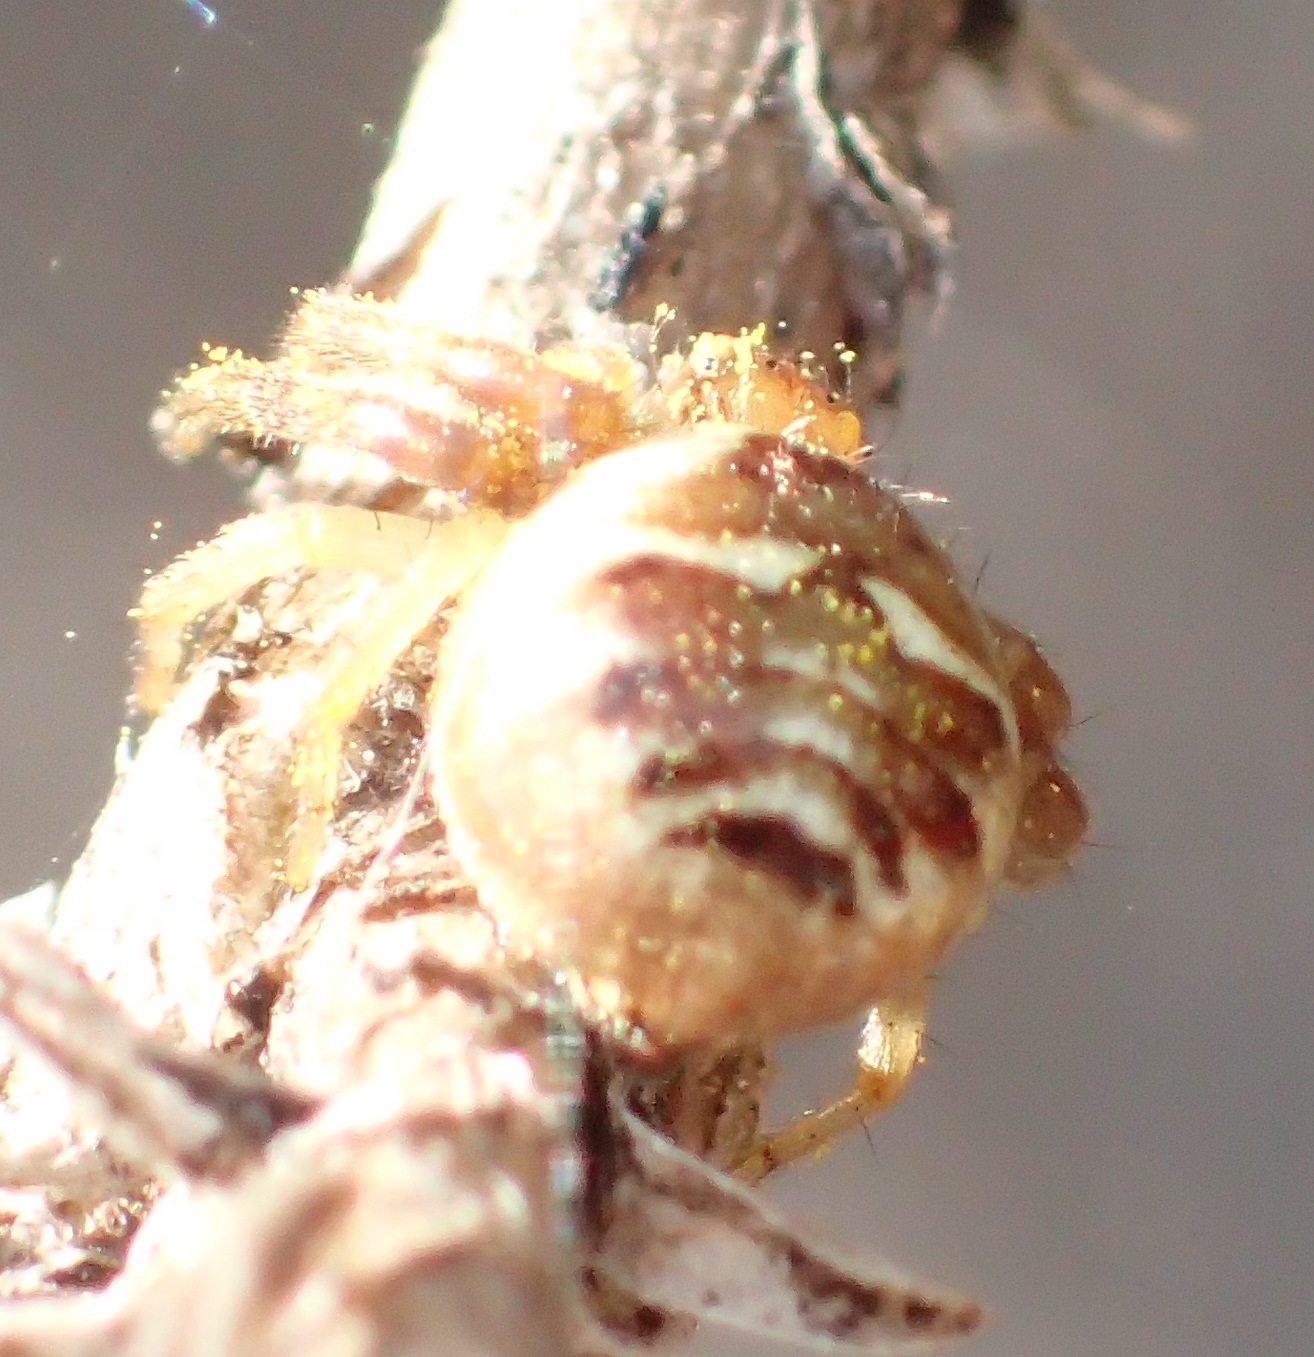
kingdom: Animalia
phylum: Arthropoda
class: Arachnida
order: Araneae
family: Thomisidae
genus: Synema
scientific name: Synema imitatrix
